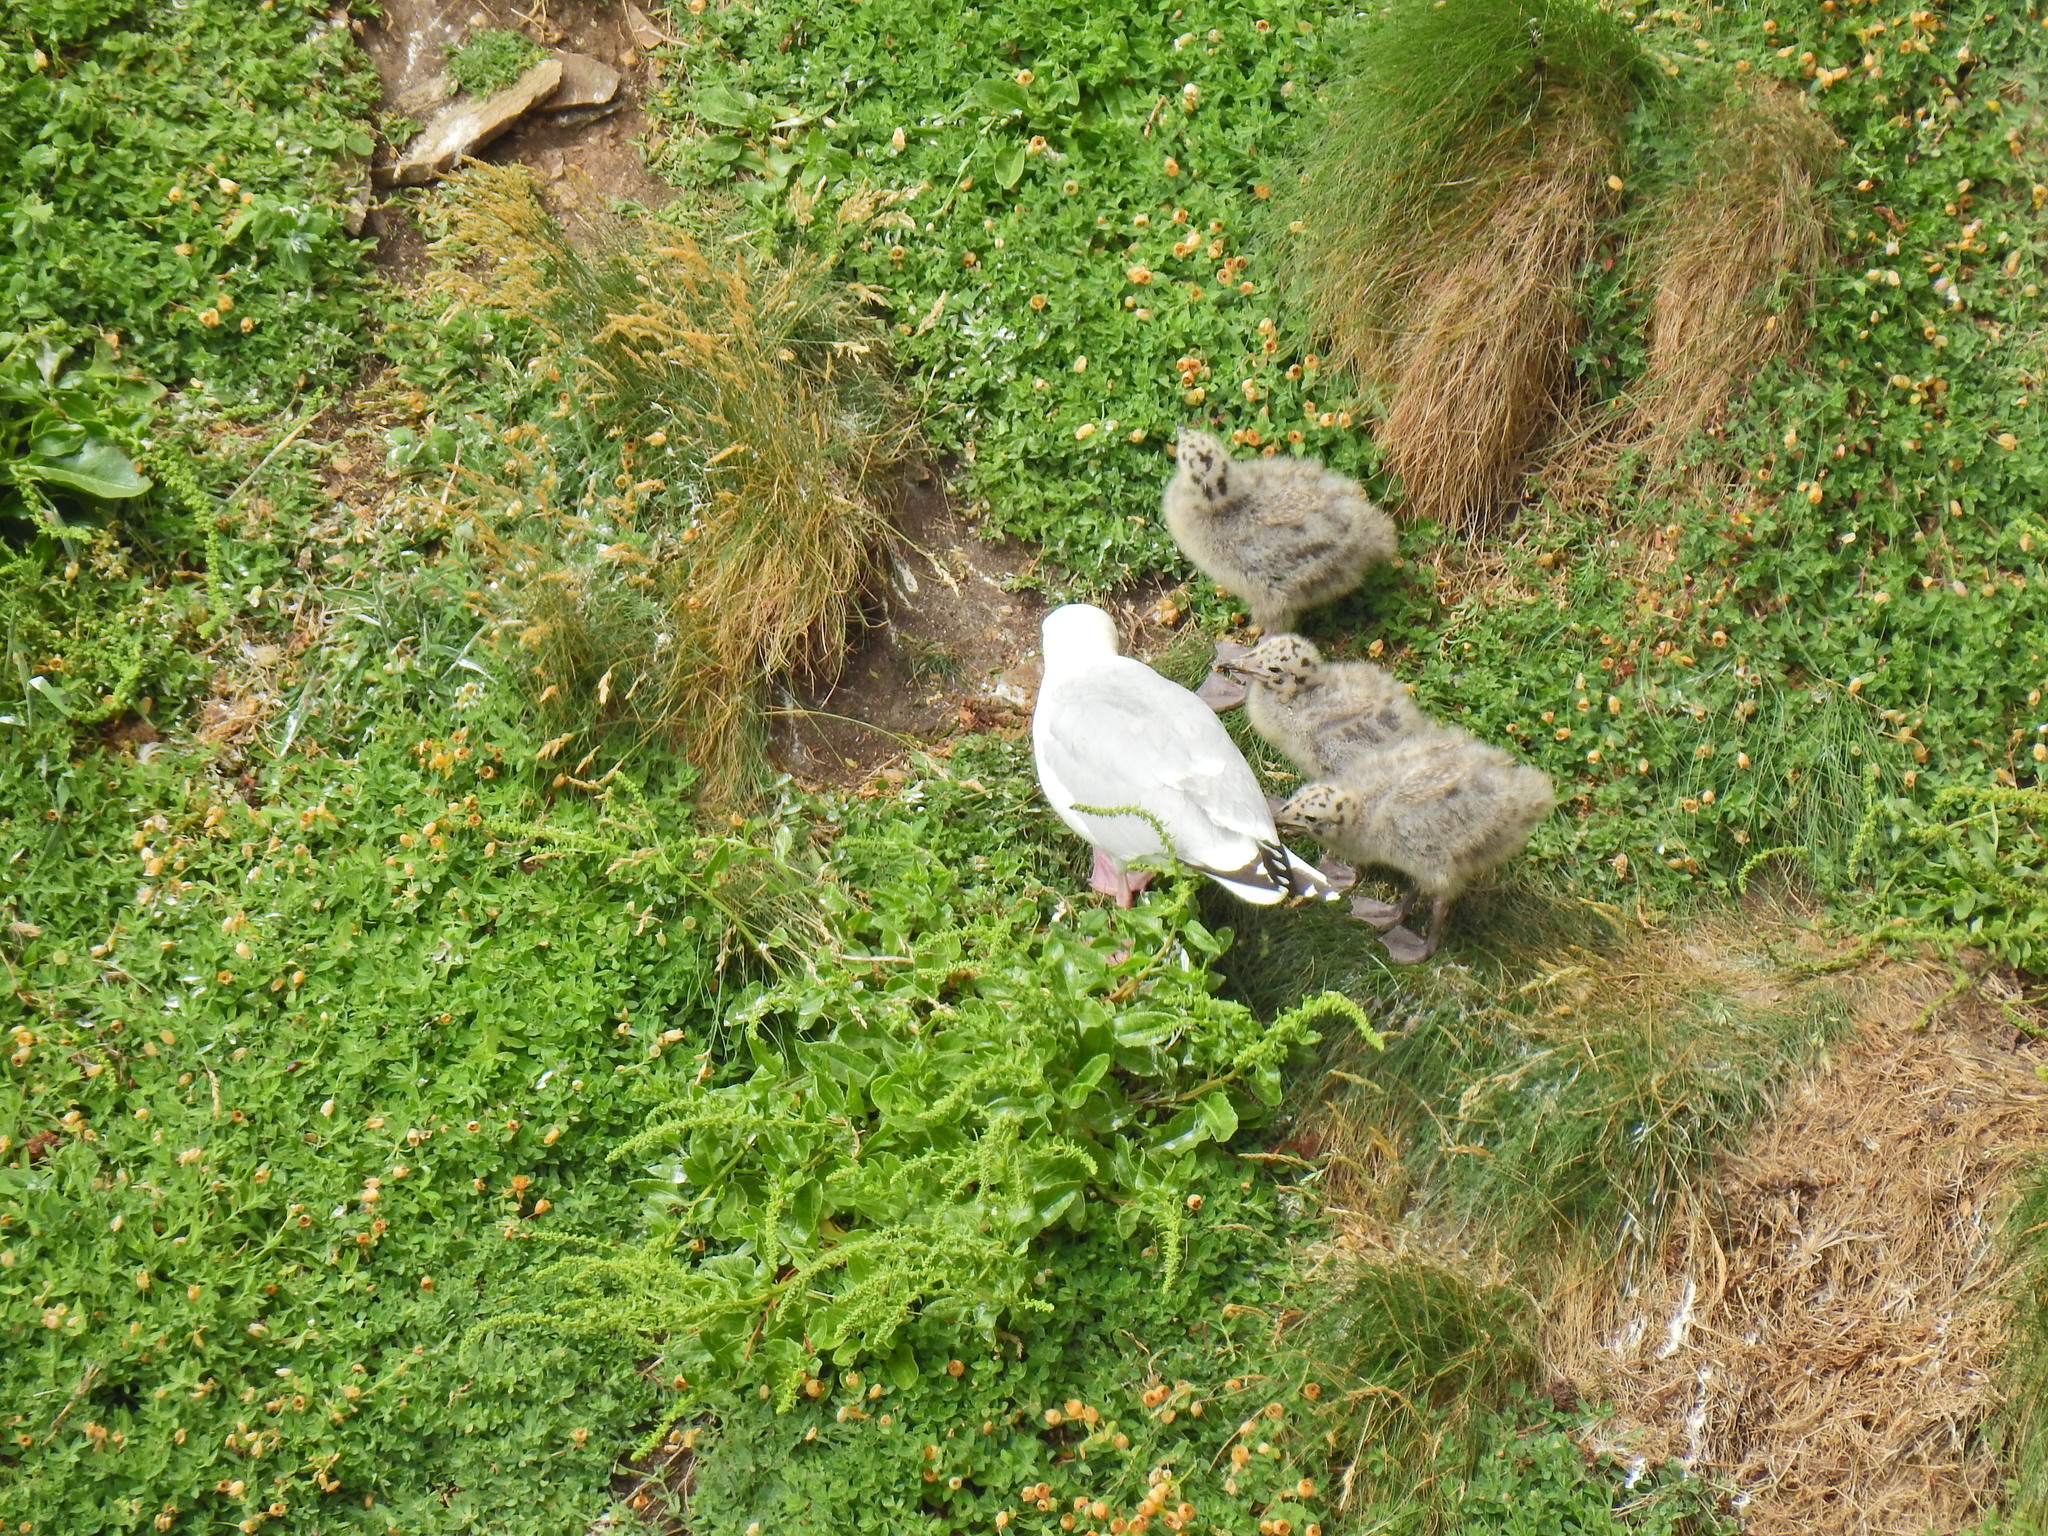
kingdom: Animalia
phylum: Chordata
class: Aves
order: Charadriiformes
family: Laridae
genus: Larus
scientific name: Larus argentatus
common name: Herring gull
